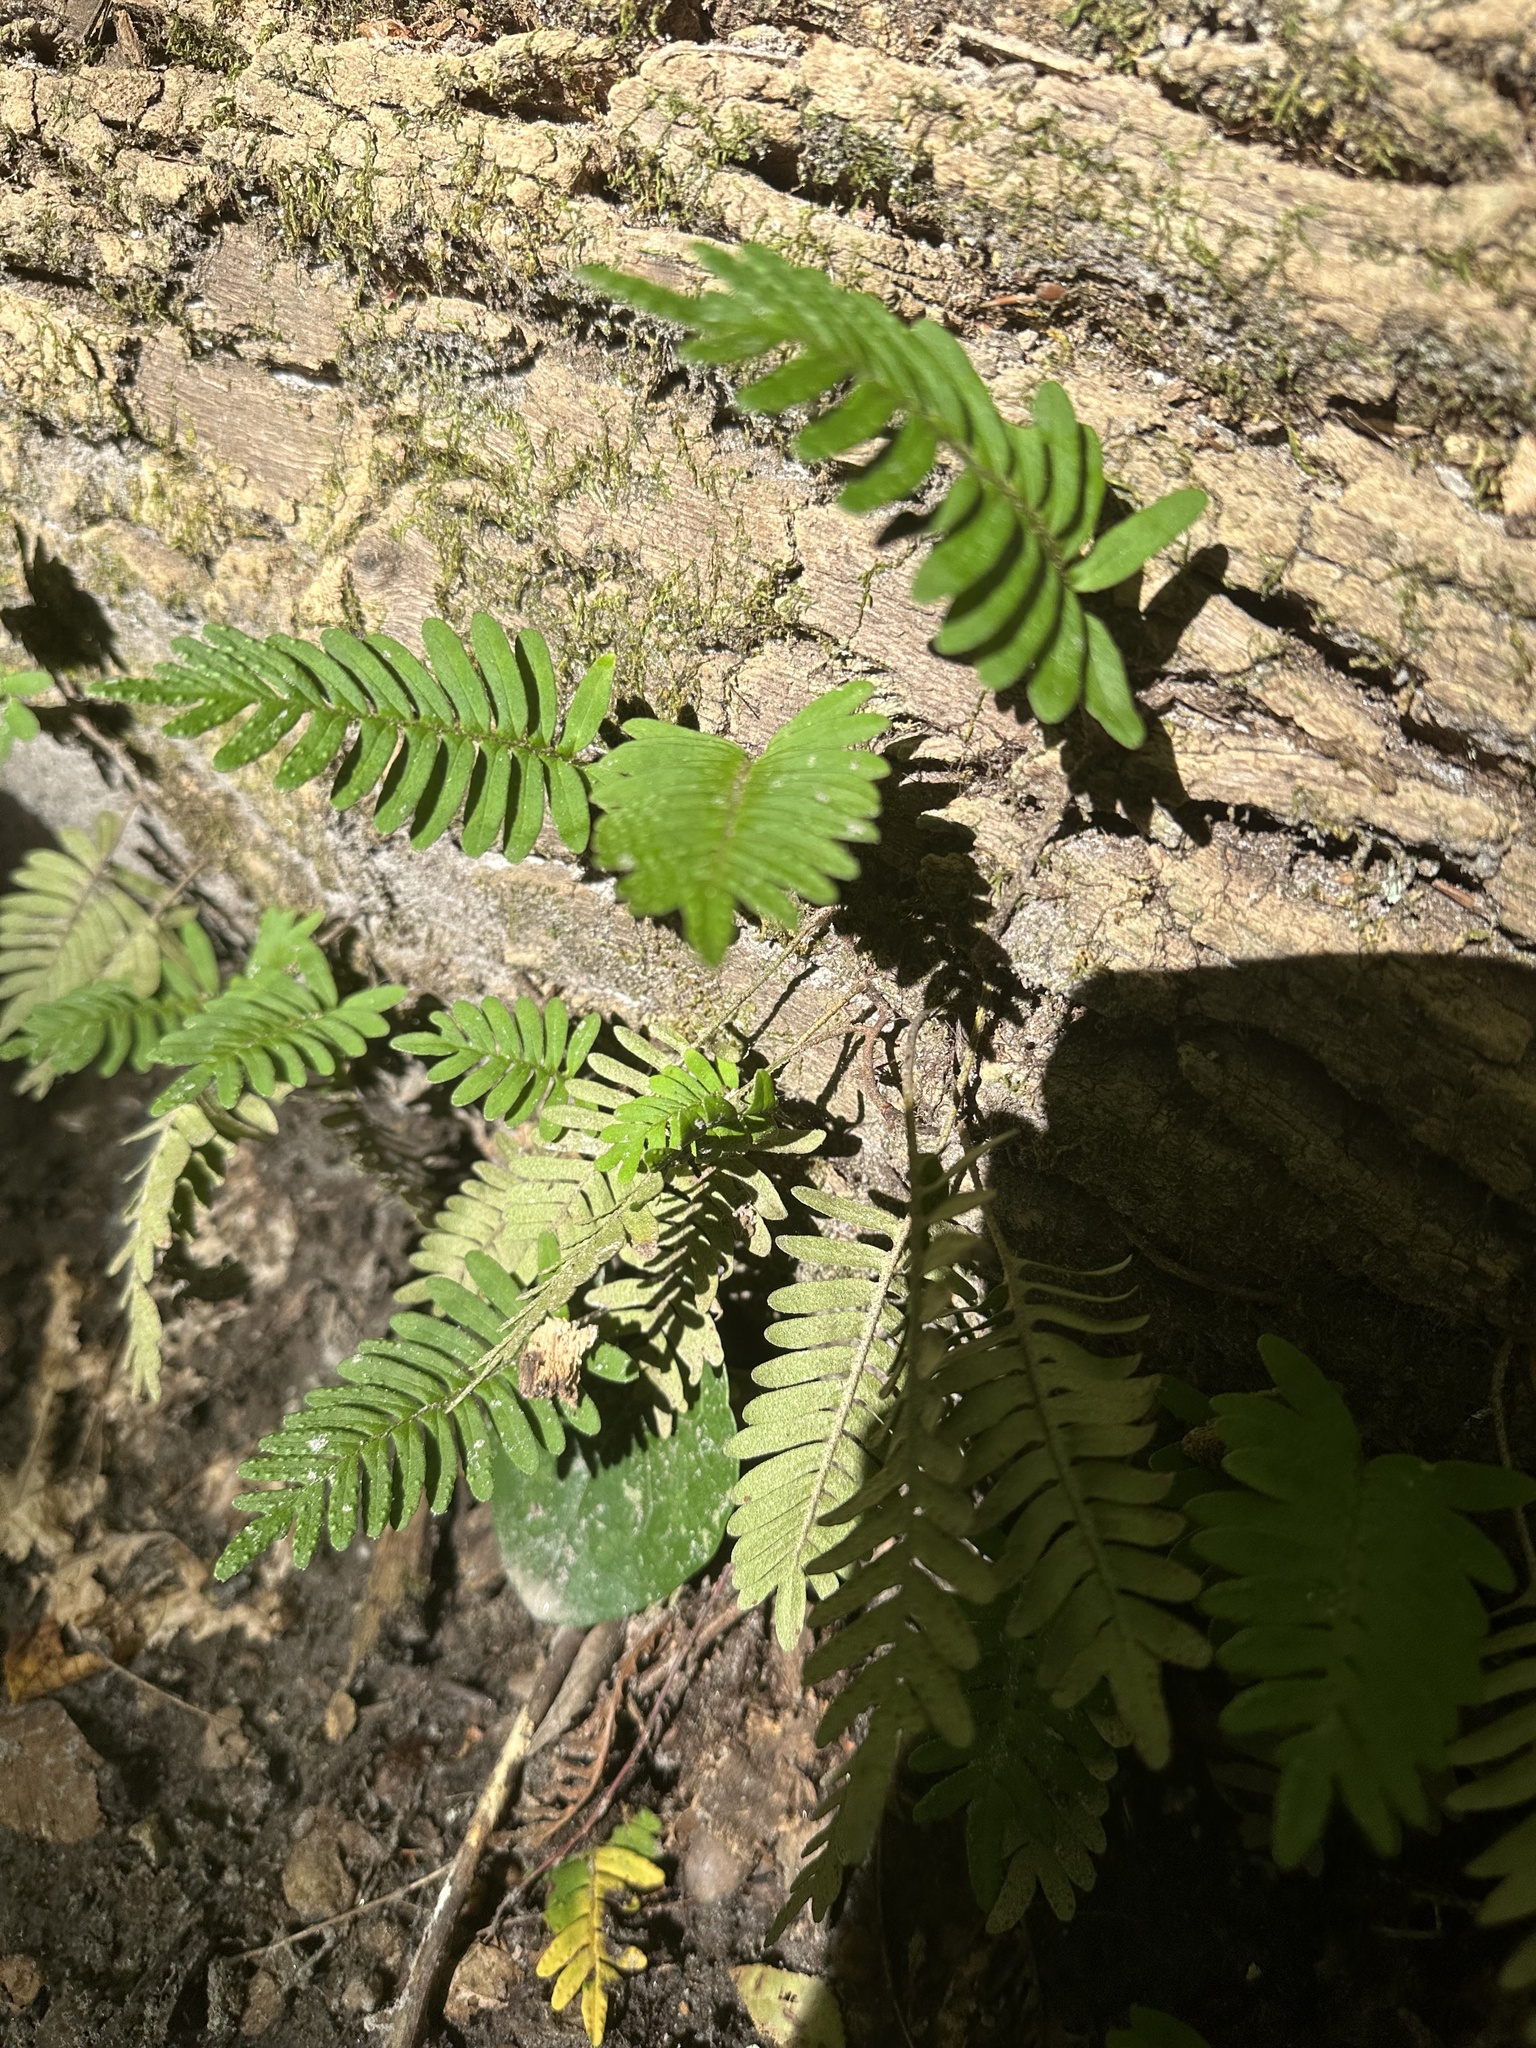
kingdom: Plantae
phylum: Tracheophyta
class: Polypodiopsida
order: Polypodiales
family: Polypodiaceae
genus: Pleopeltis
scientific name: Pleopeltis michauxiana
